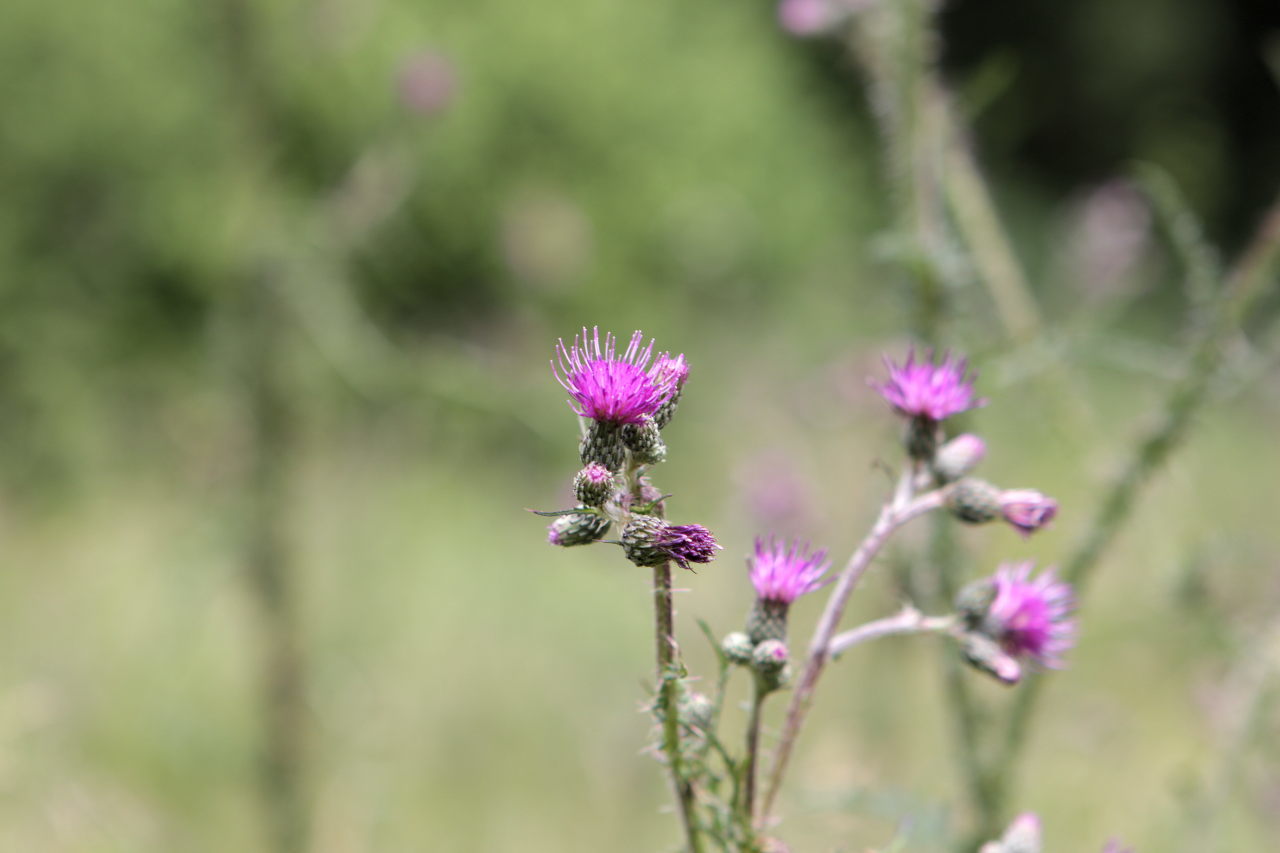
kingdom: Plantae
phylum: Tracheophyta
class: Magnoliopsida
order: Asterales
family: Asteraceae
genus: Cirsium
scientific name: Cirsium palustre
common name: Marsh thistle
